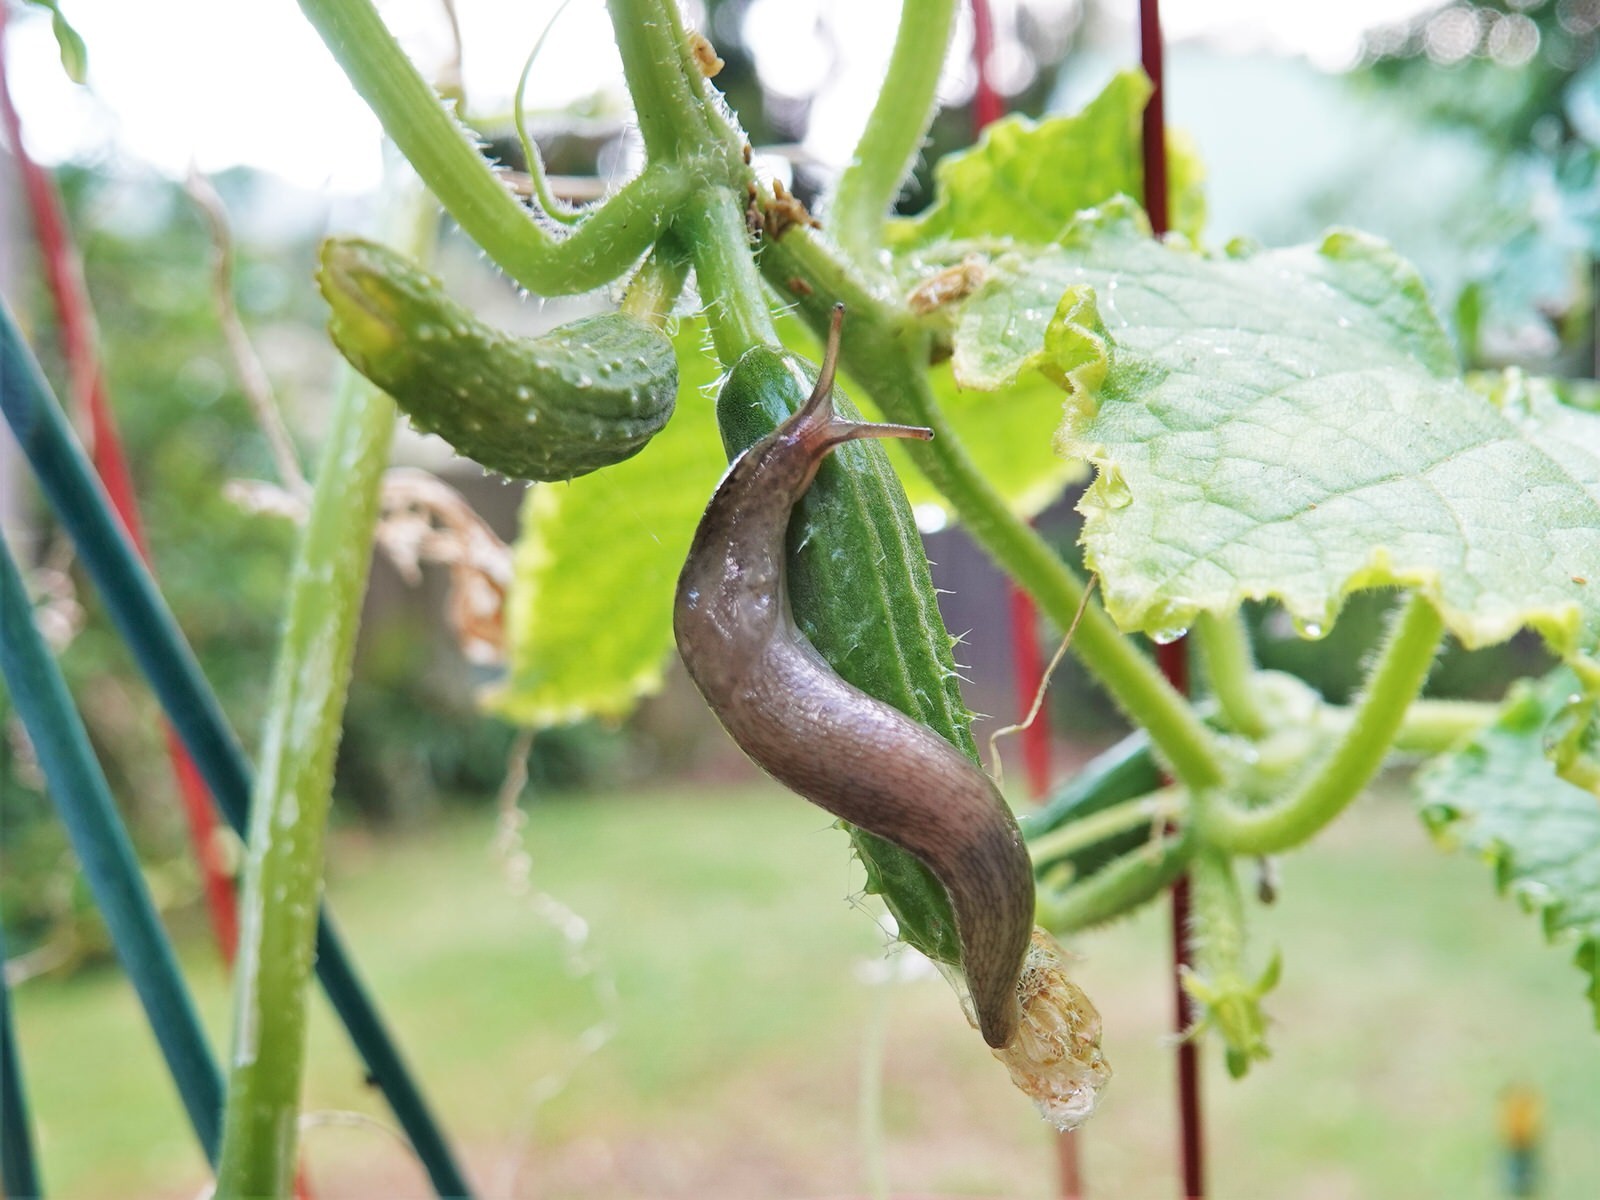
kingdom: Animalia
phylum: Mollusca
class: Gastropoda
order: Stylommatophora
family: Limacidae
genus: Limax
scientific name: Limax maximus
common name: Great grey slug
